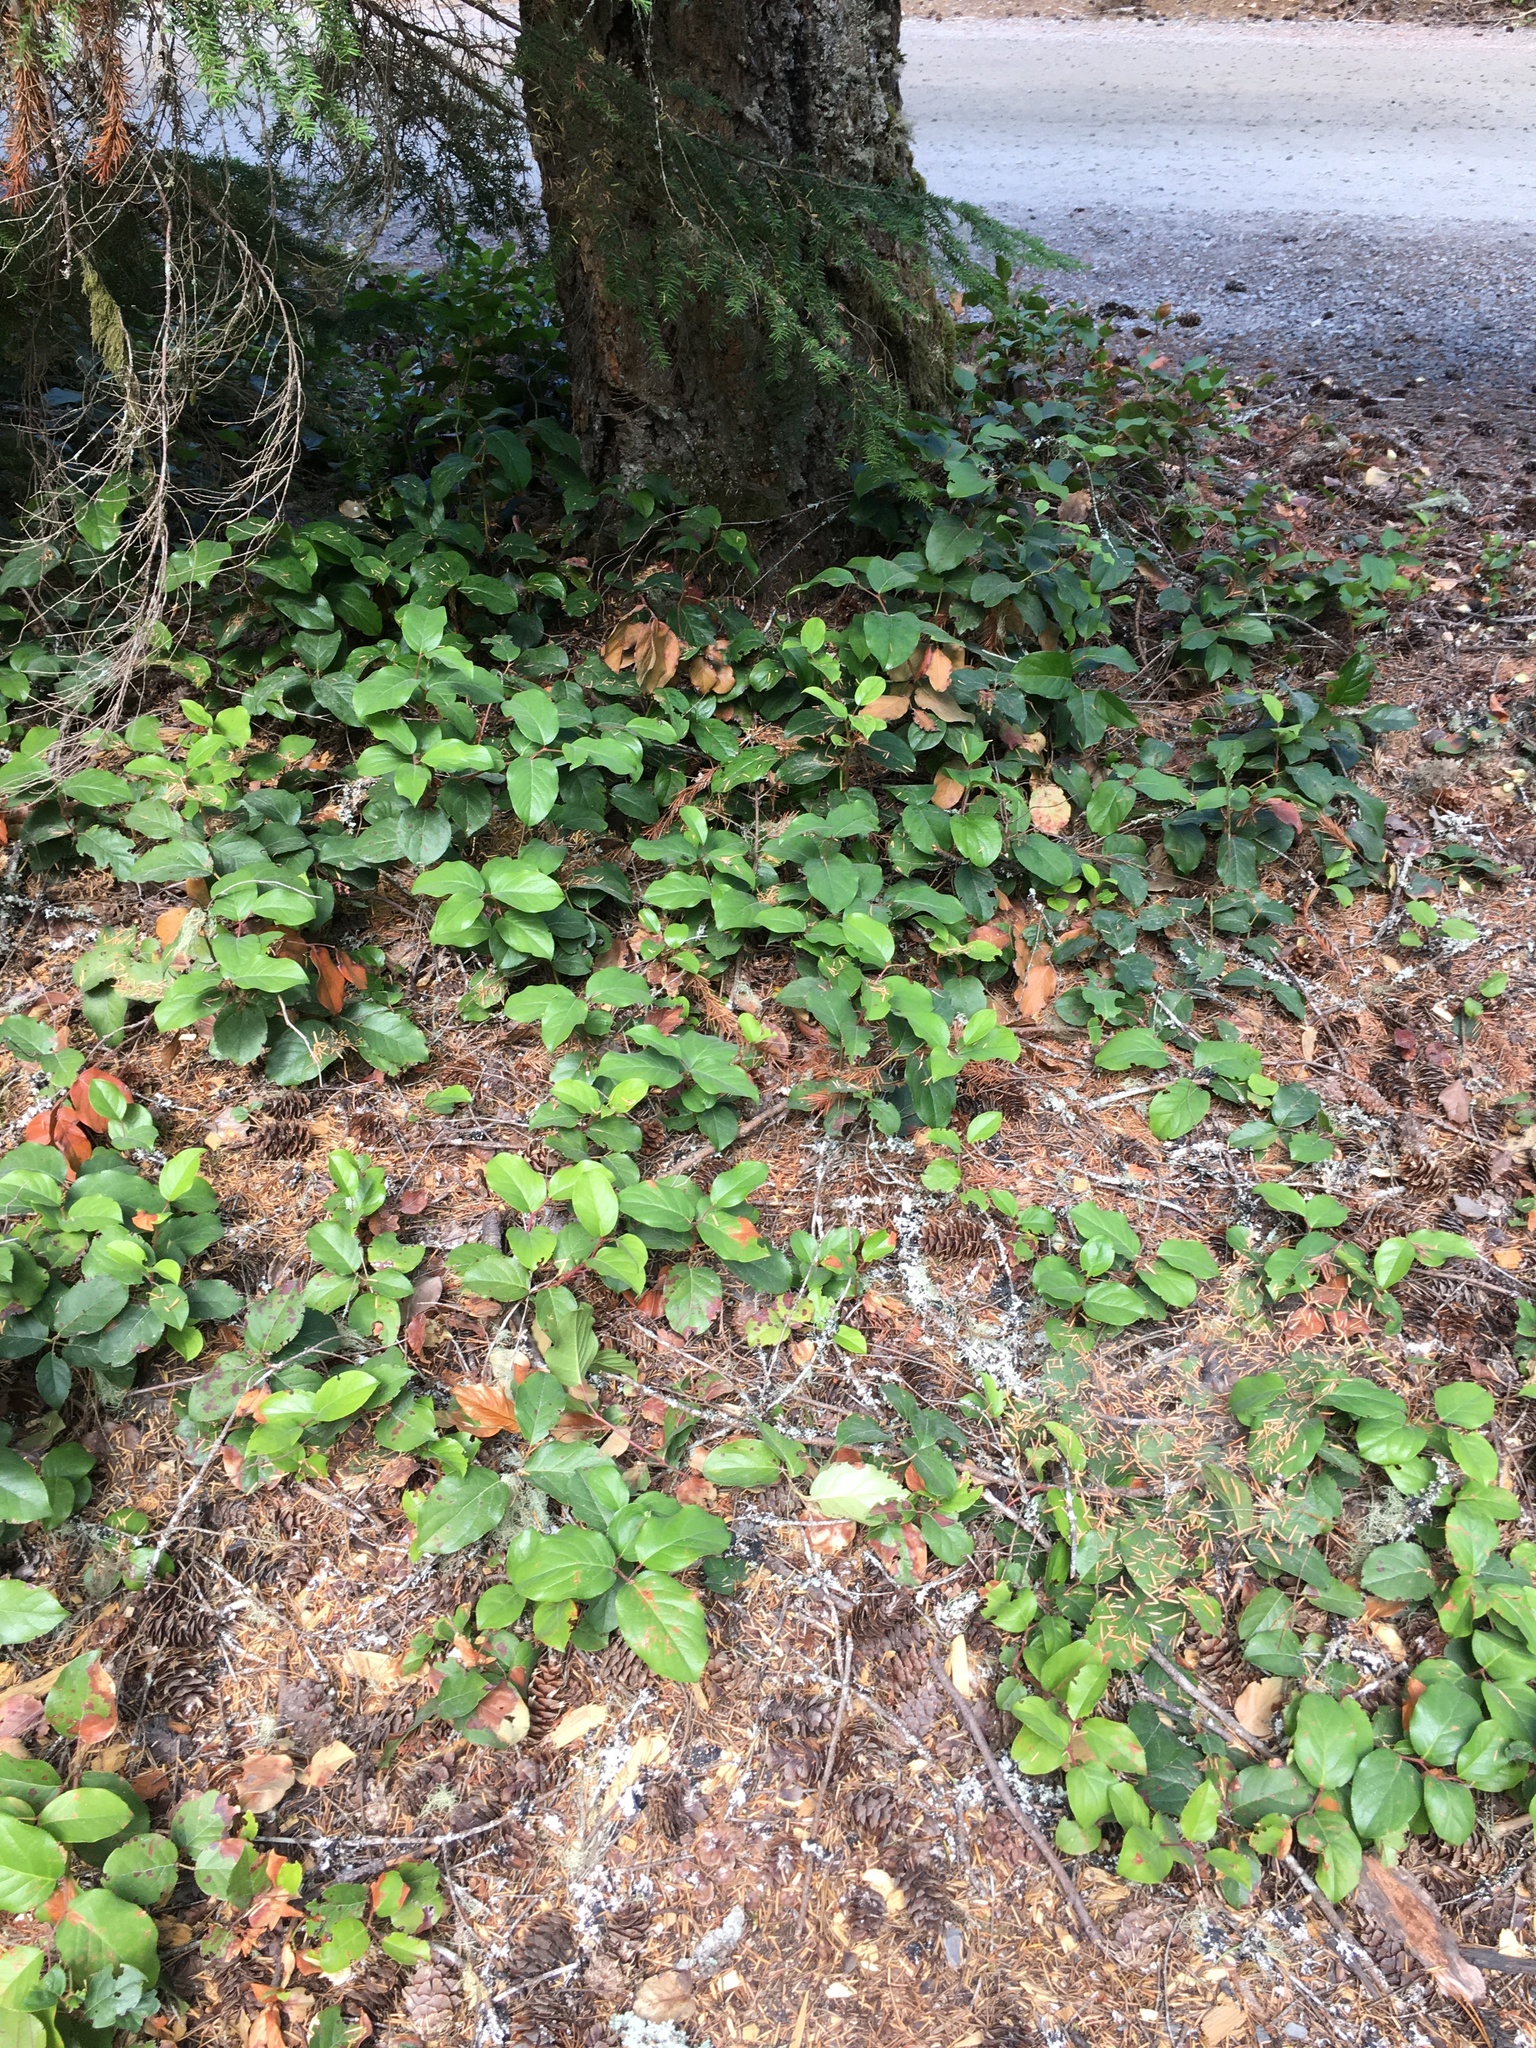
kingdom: Plantae
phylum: Tracheophyta
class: Magnoliopsida
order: Ericales
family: Ericaceae
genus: Gaultheria
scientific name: Gaultheria shallon
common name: Shallon
